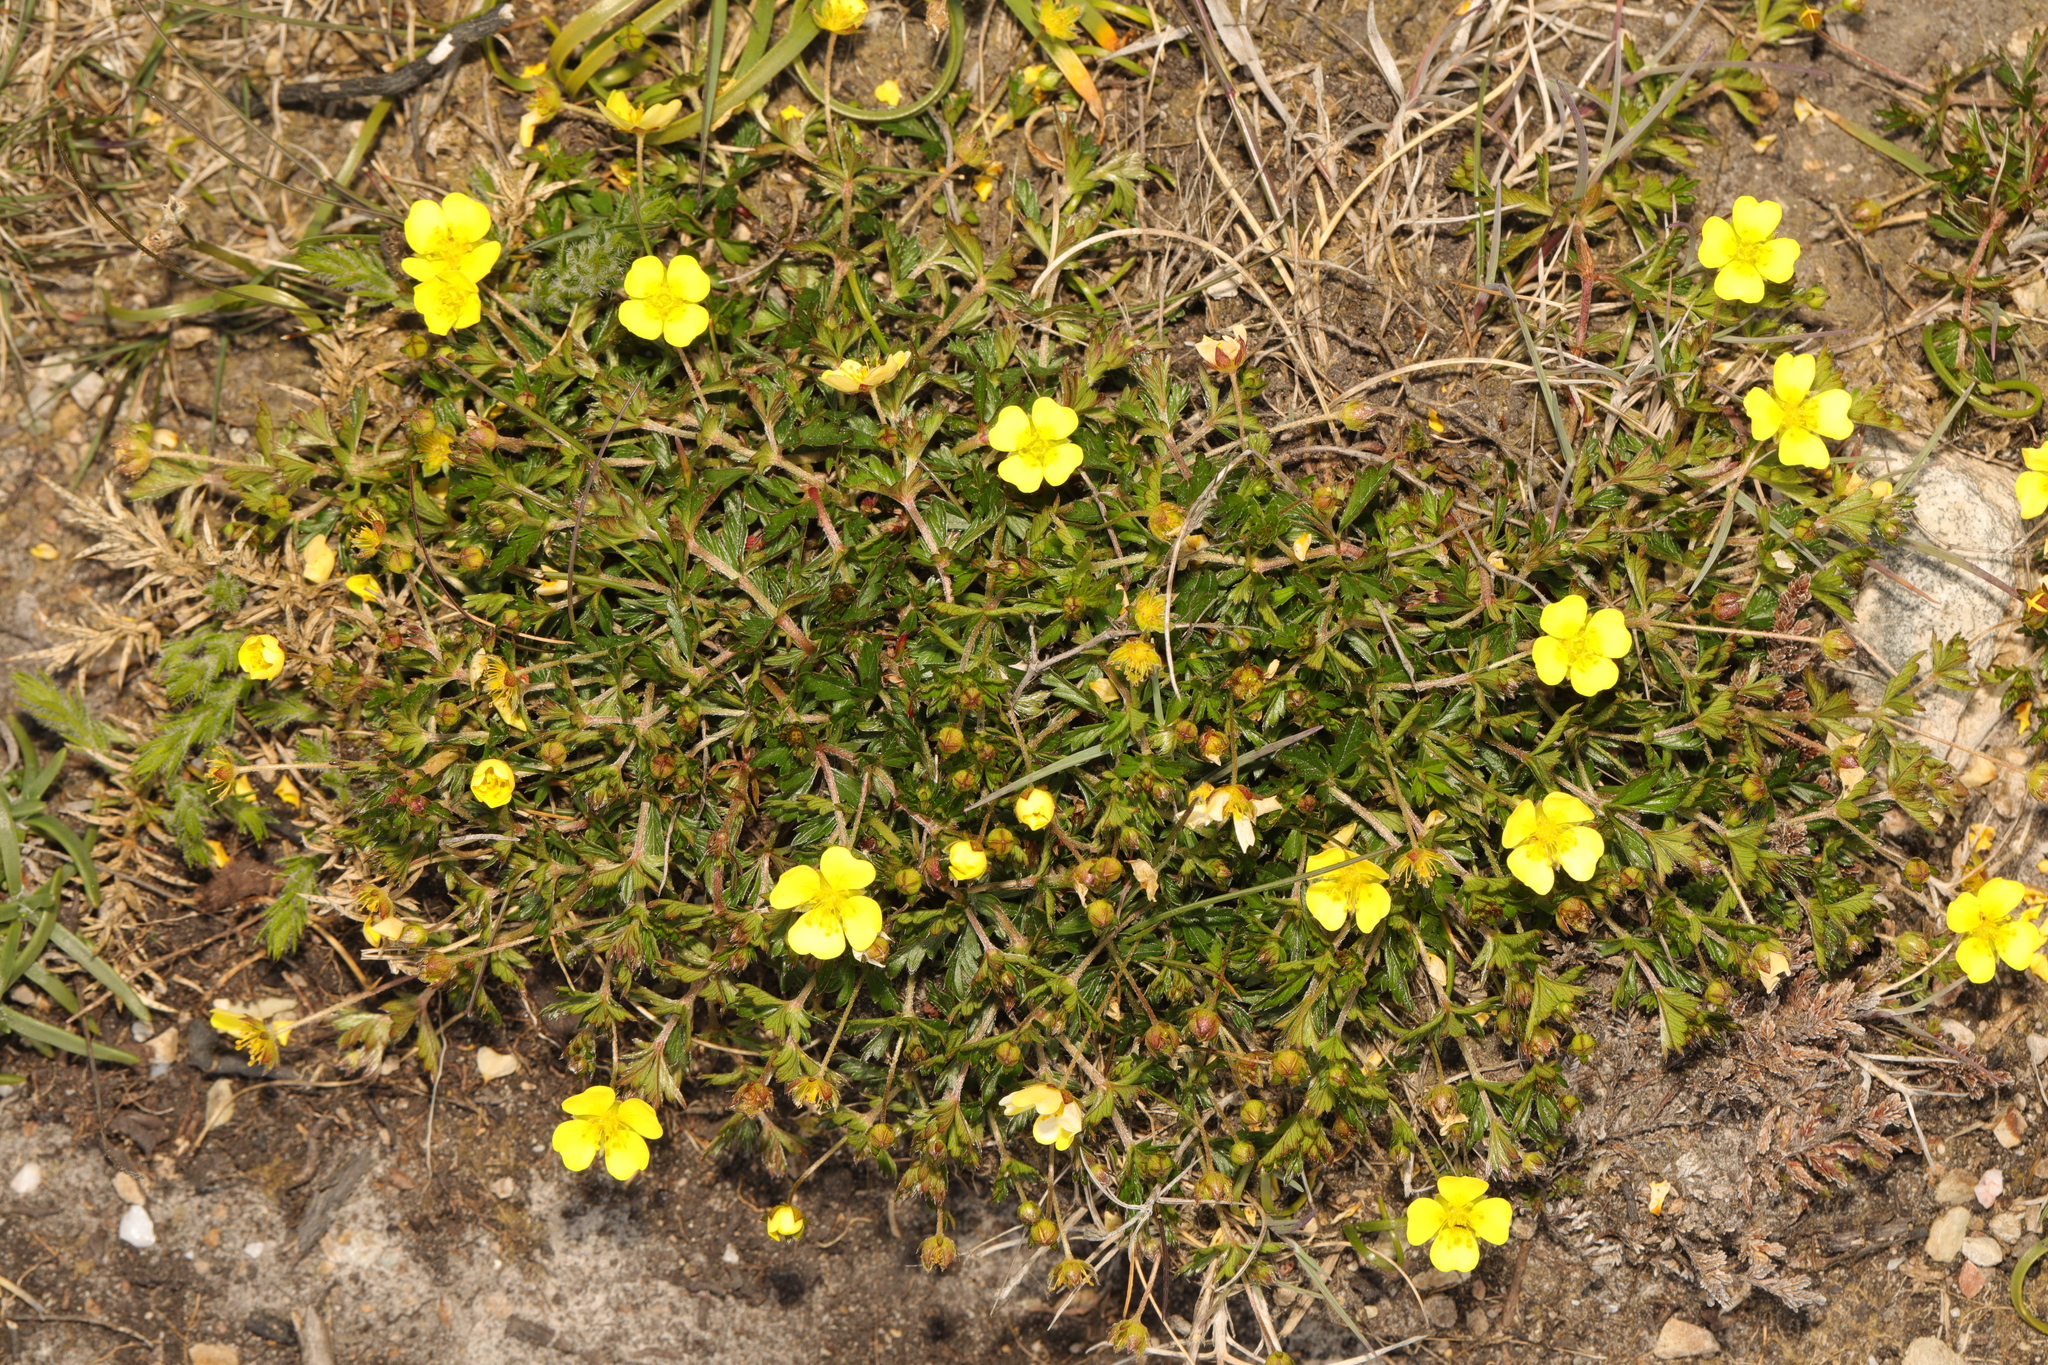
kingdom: Plantae
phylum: Tracheophyta
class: Magnoliopsida
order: Rosales
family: Rosaceae
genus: Potentilla
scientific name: Potentilla erecta
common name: Tormentil
